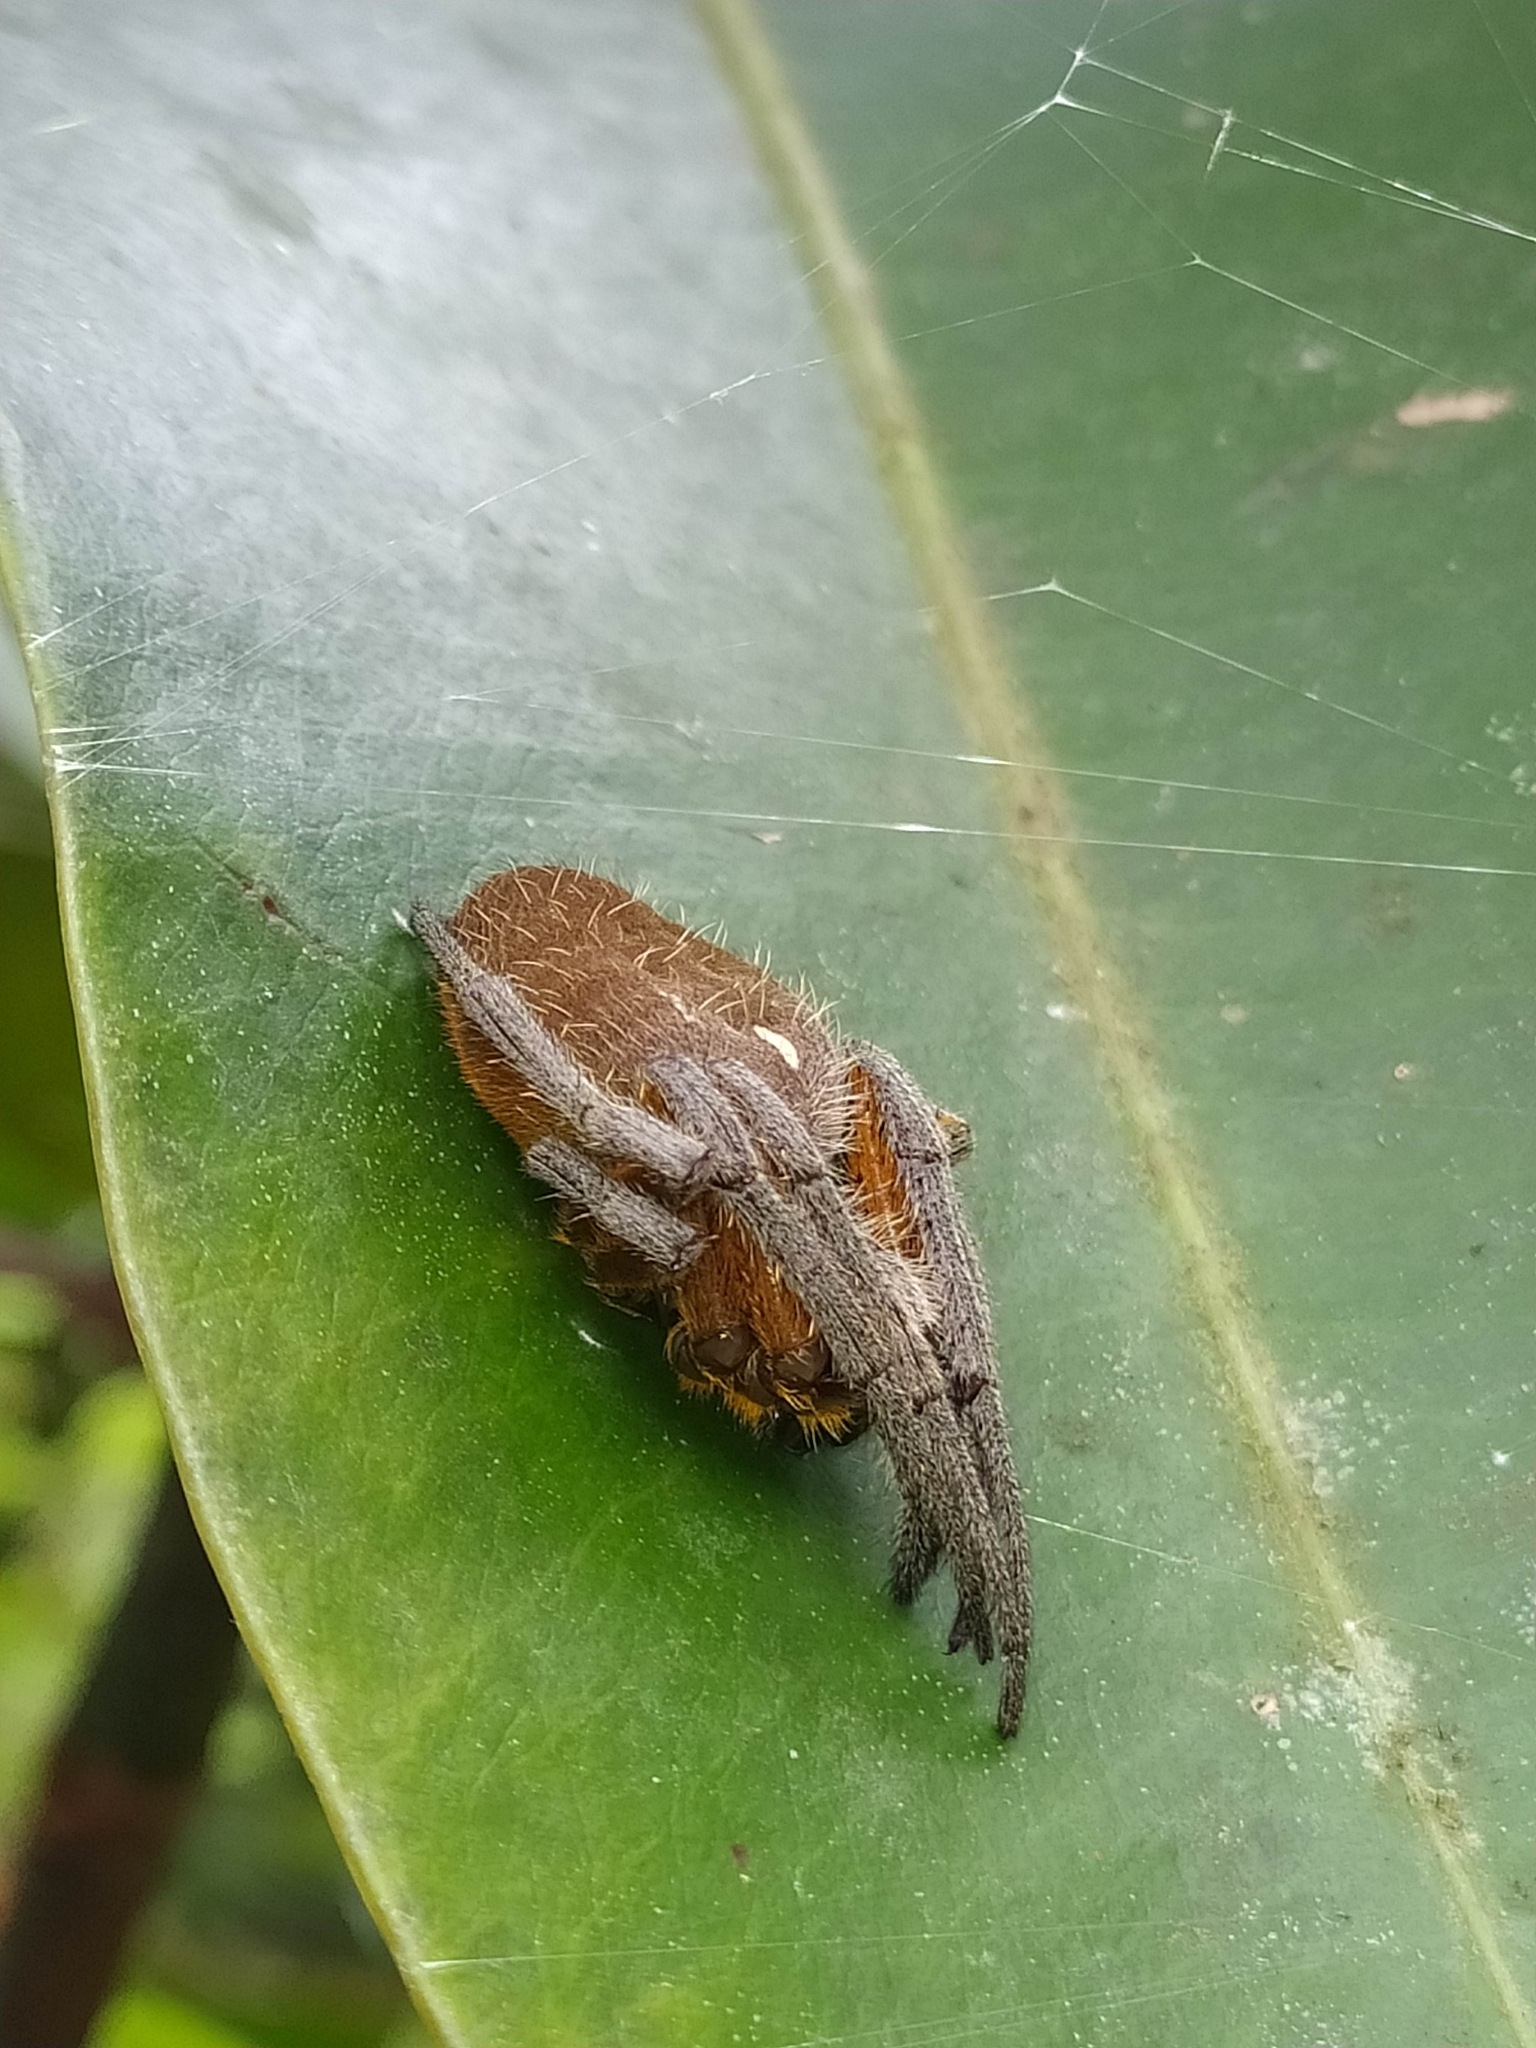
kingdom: Animalia
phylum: Arthropoda
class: Arachnida
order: Araneae
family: Araneidae
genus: Eriophora
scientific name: Eriophora fuliginea
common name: Orb weavers
